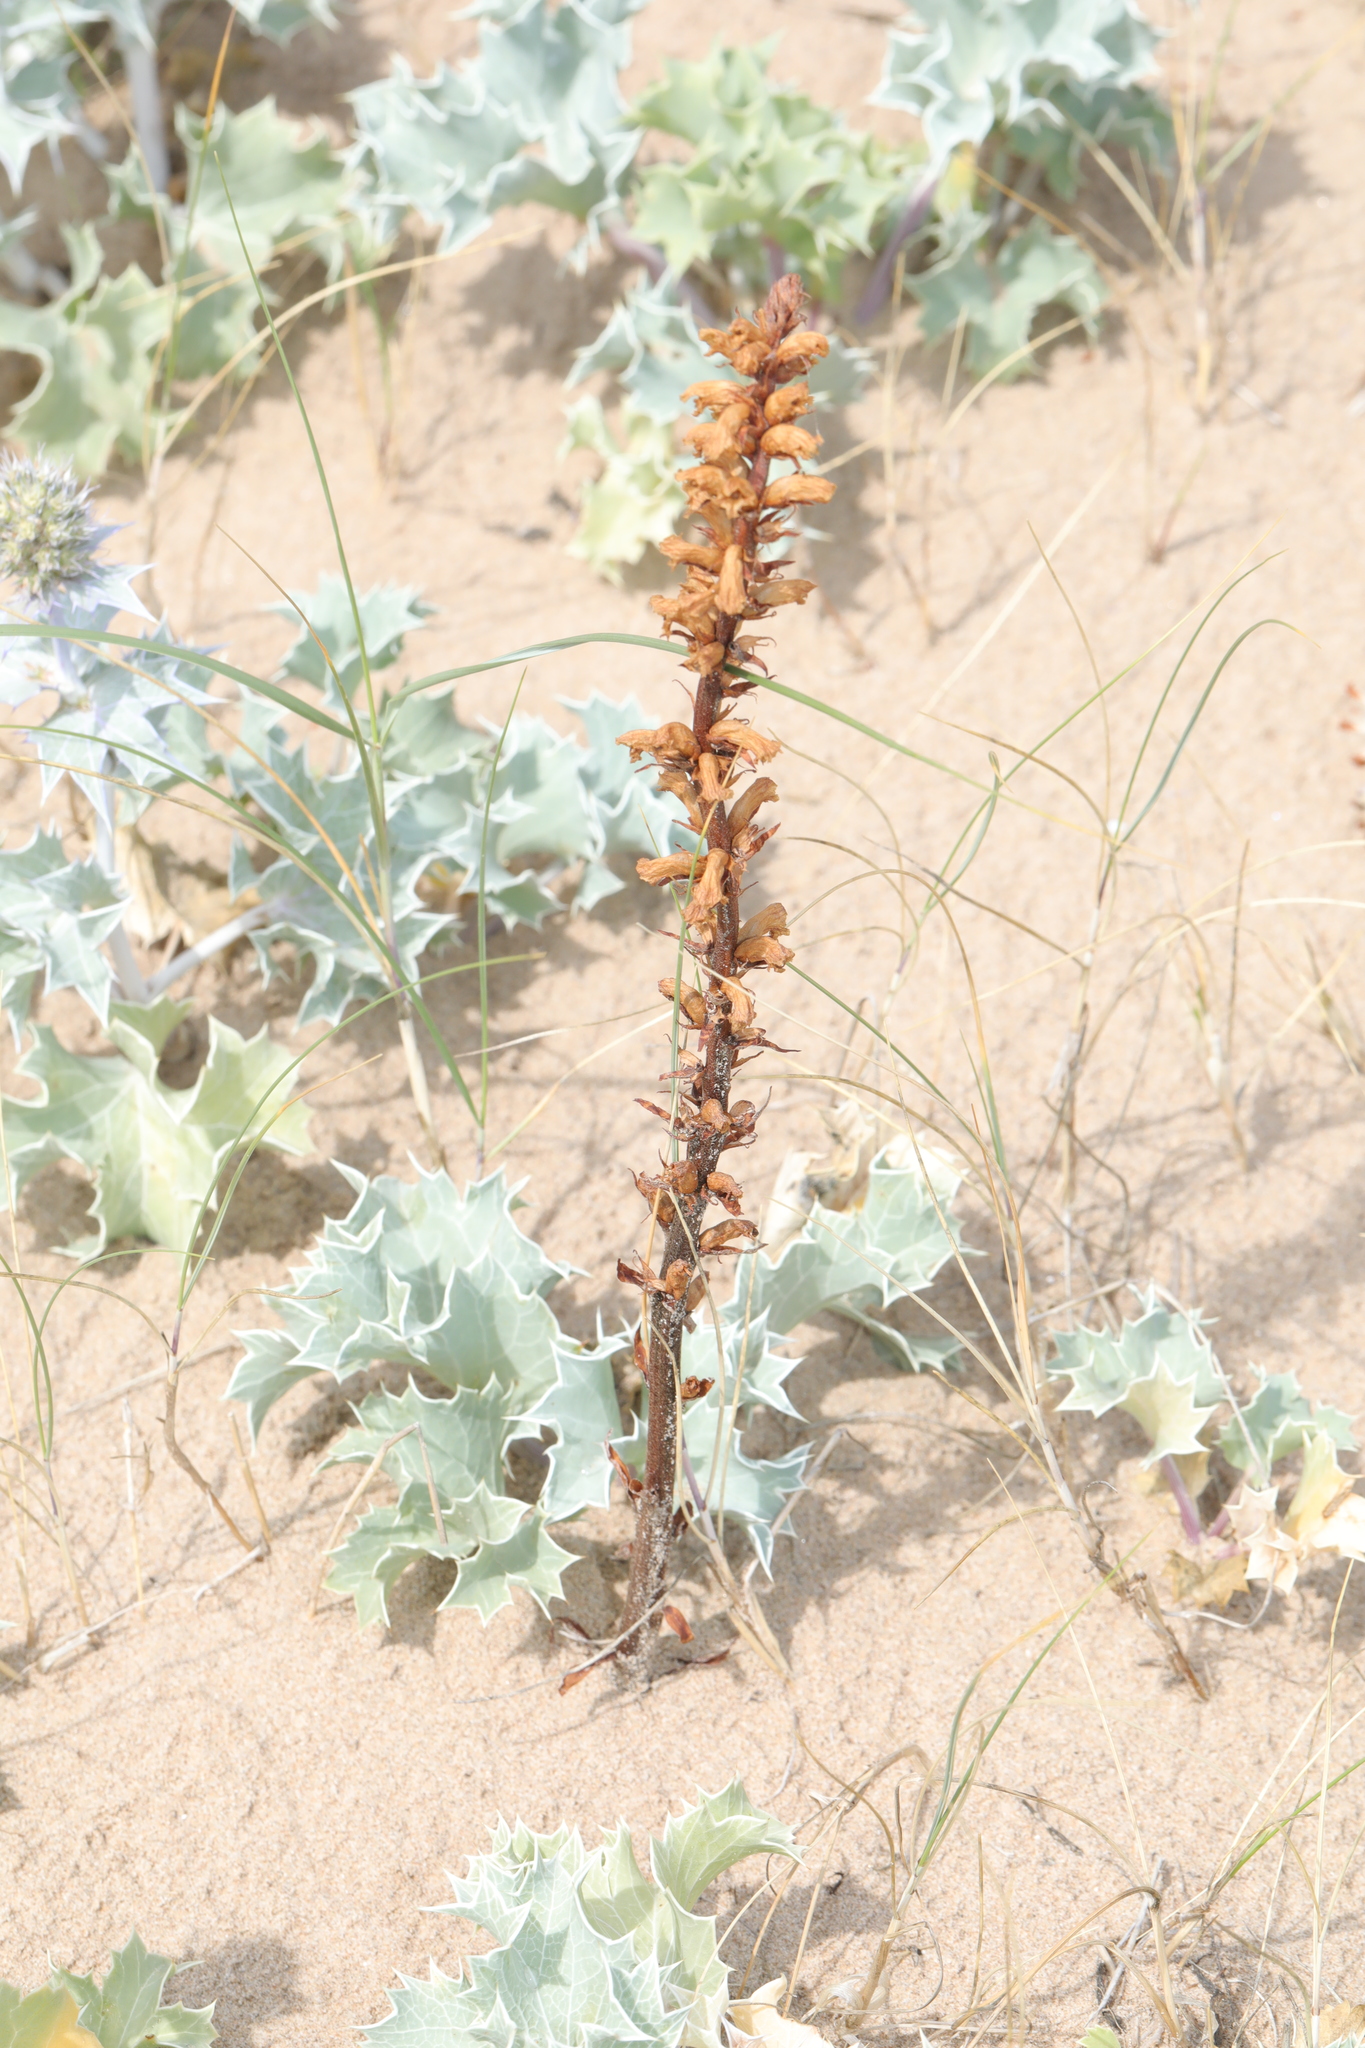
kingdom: Plantae
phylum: Tracheophyta
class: Magnoliopsida
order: Lamiales
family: Orobanchaceae
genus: Orobanche
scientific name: Orobanche minor
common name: Common broomrape
